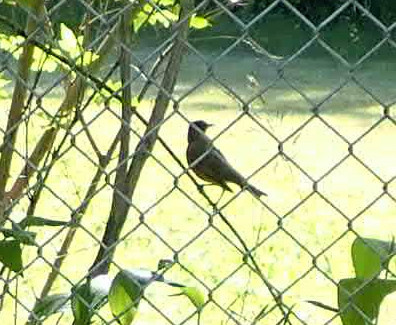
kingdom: Animalia
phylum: Chordata
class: Aves
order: Passeriformes
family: Turdidae
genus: Turdus
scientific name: Turdus migratorius
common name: American robin
